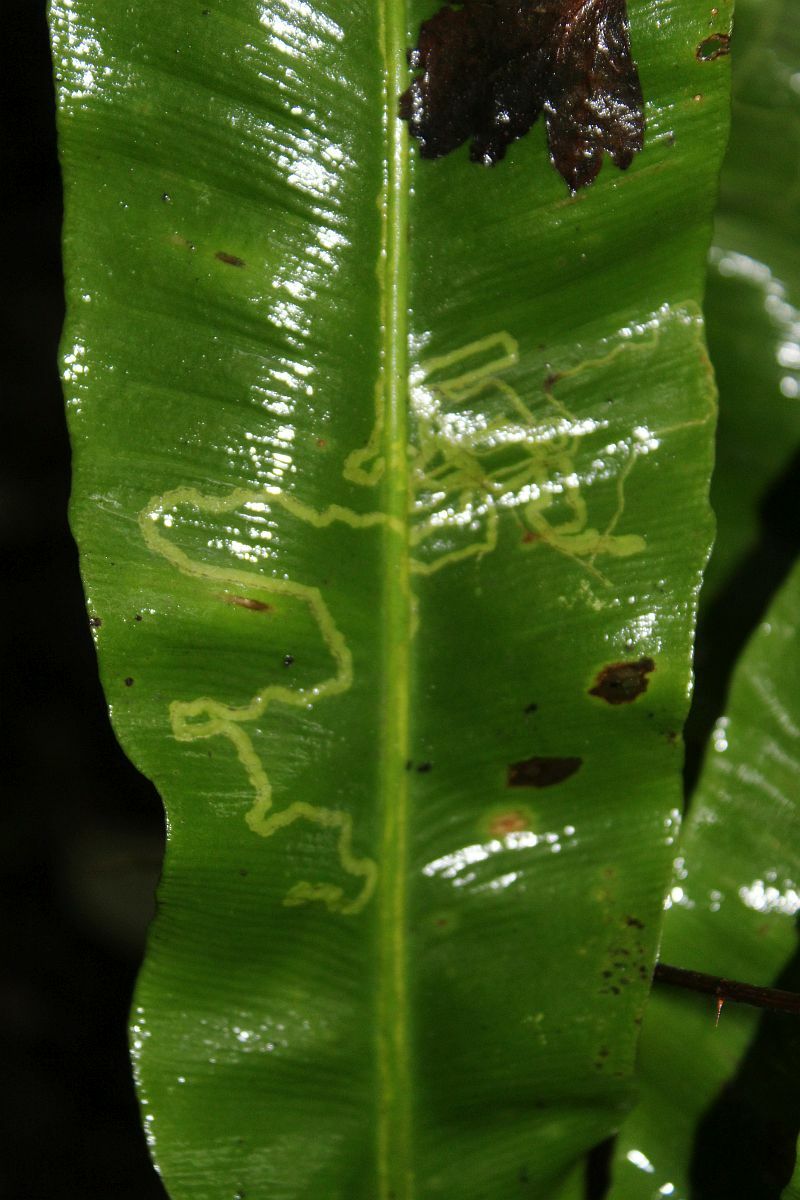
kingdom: Animalia
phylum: Arthropoda
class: Insecta
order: Diptera
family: Agromyzidae
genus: Phytomyza
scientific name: Phytomyza scolopendri
